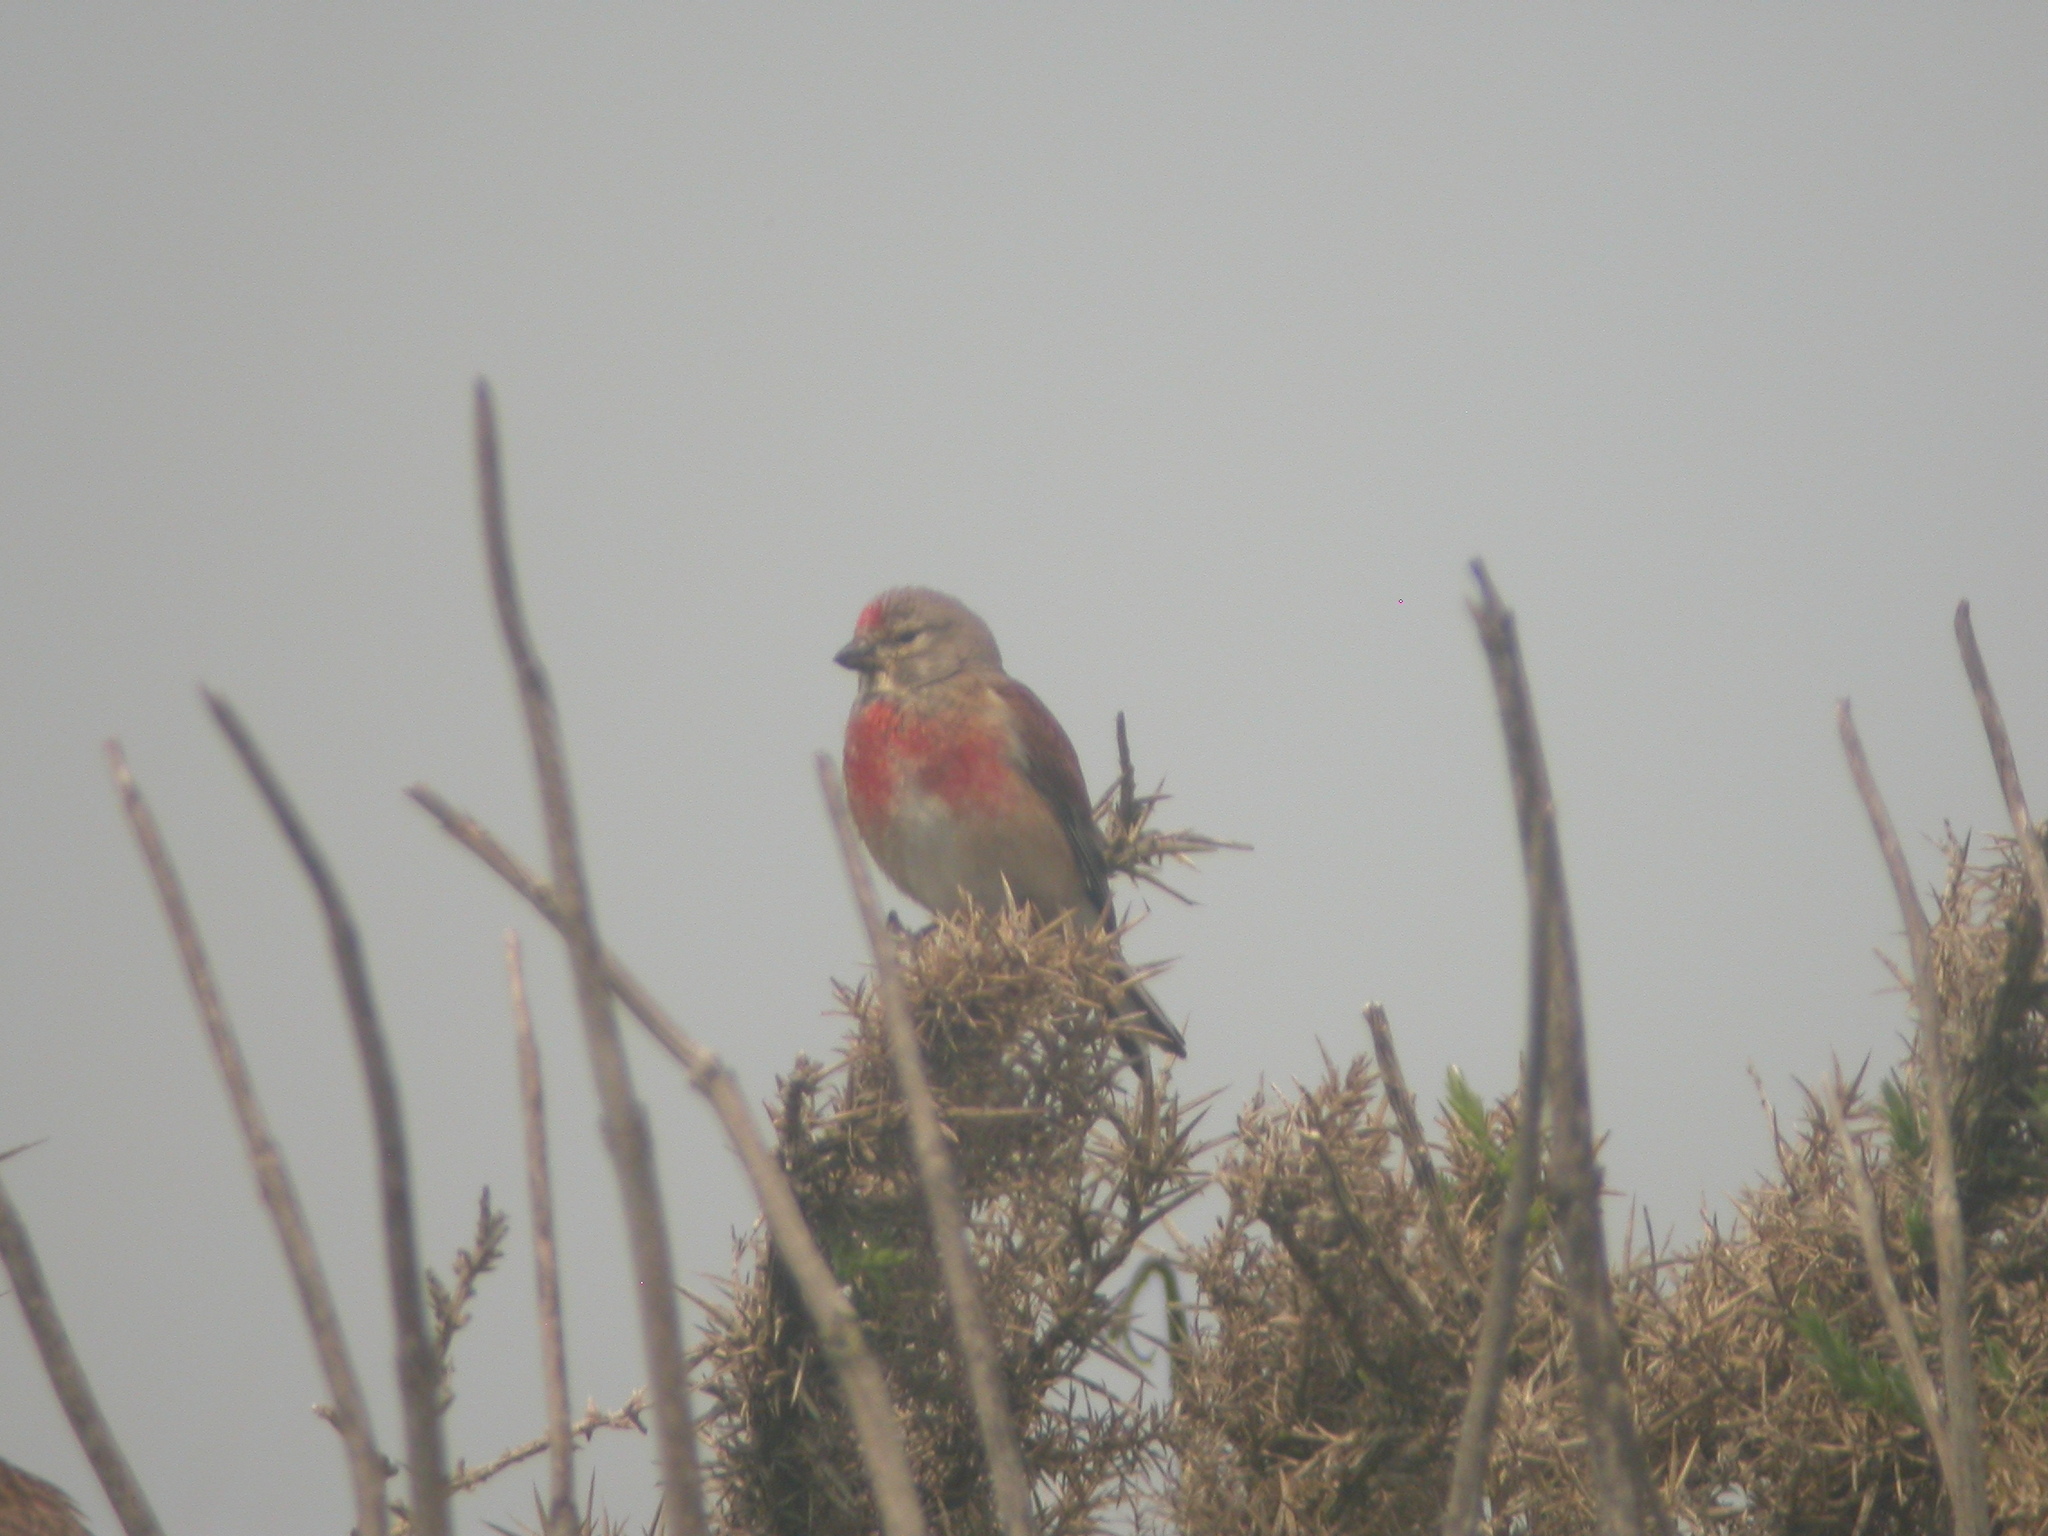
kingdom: Animalia
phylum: Chordata
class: Aves
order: Passeriformes
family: Fringillidae
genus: Linaria
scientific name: Linaria cannabina
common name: Common linnet
